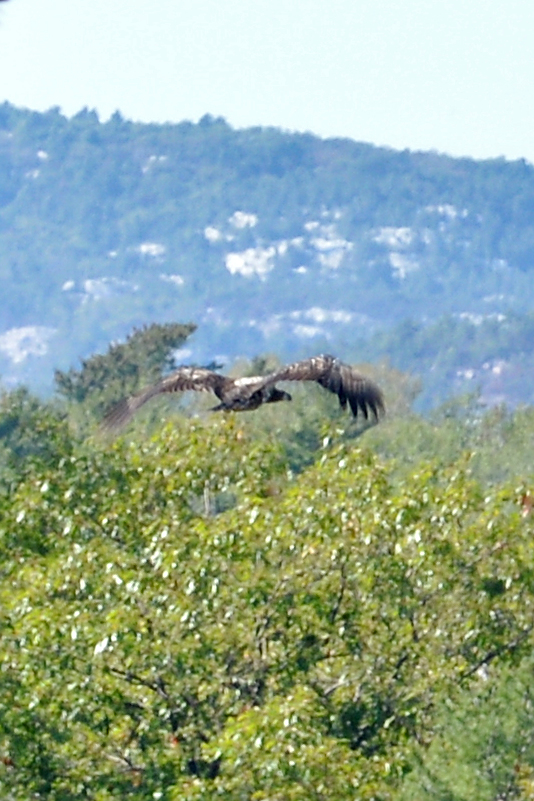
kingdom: Animalia
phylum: Chordata
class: Aves
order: Accipitriformes
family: Accipitridae
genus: Haliaeetus
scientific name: Haliaeetus leucocephalus
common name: Bald eagle
